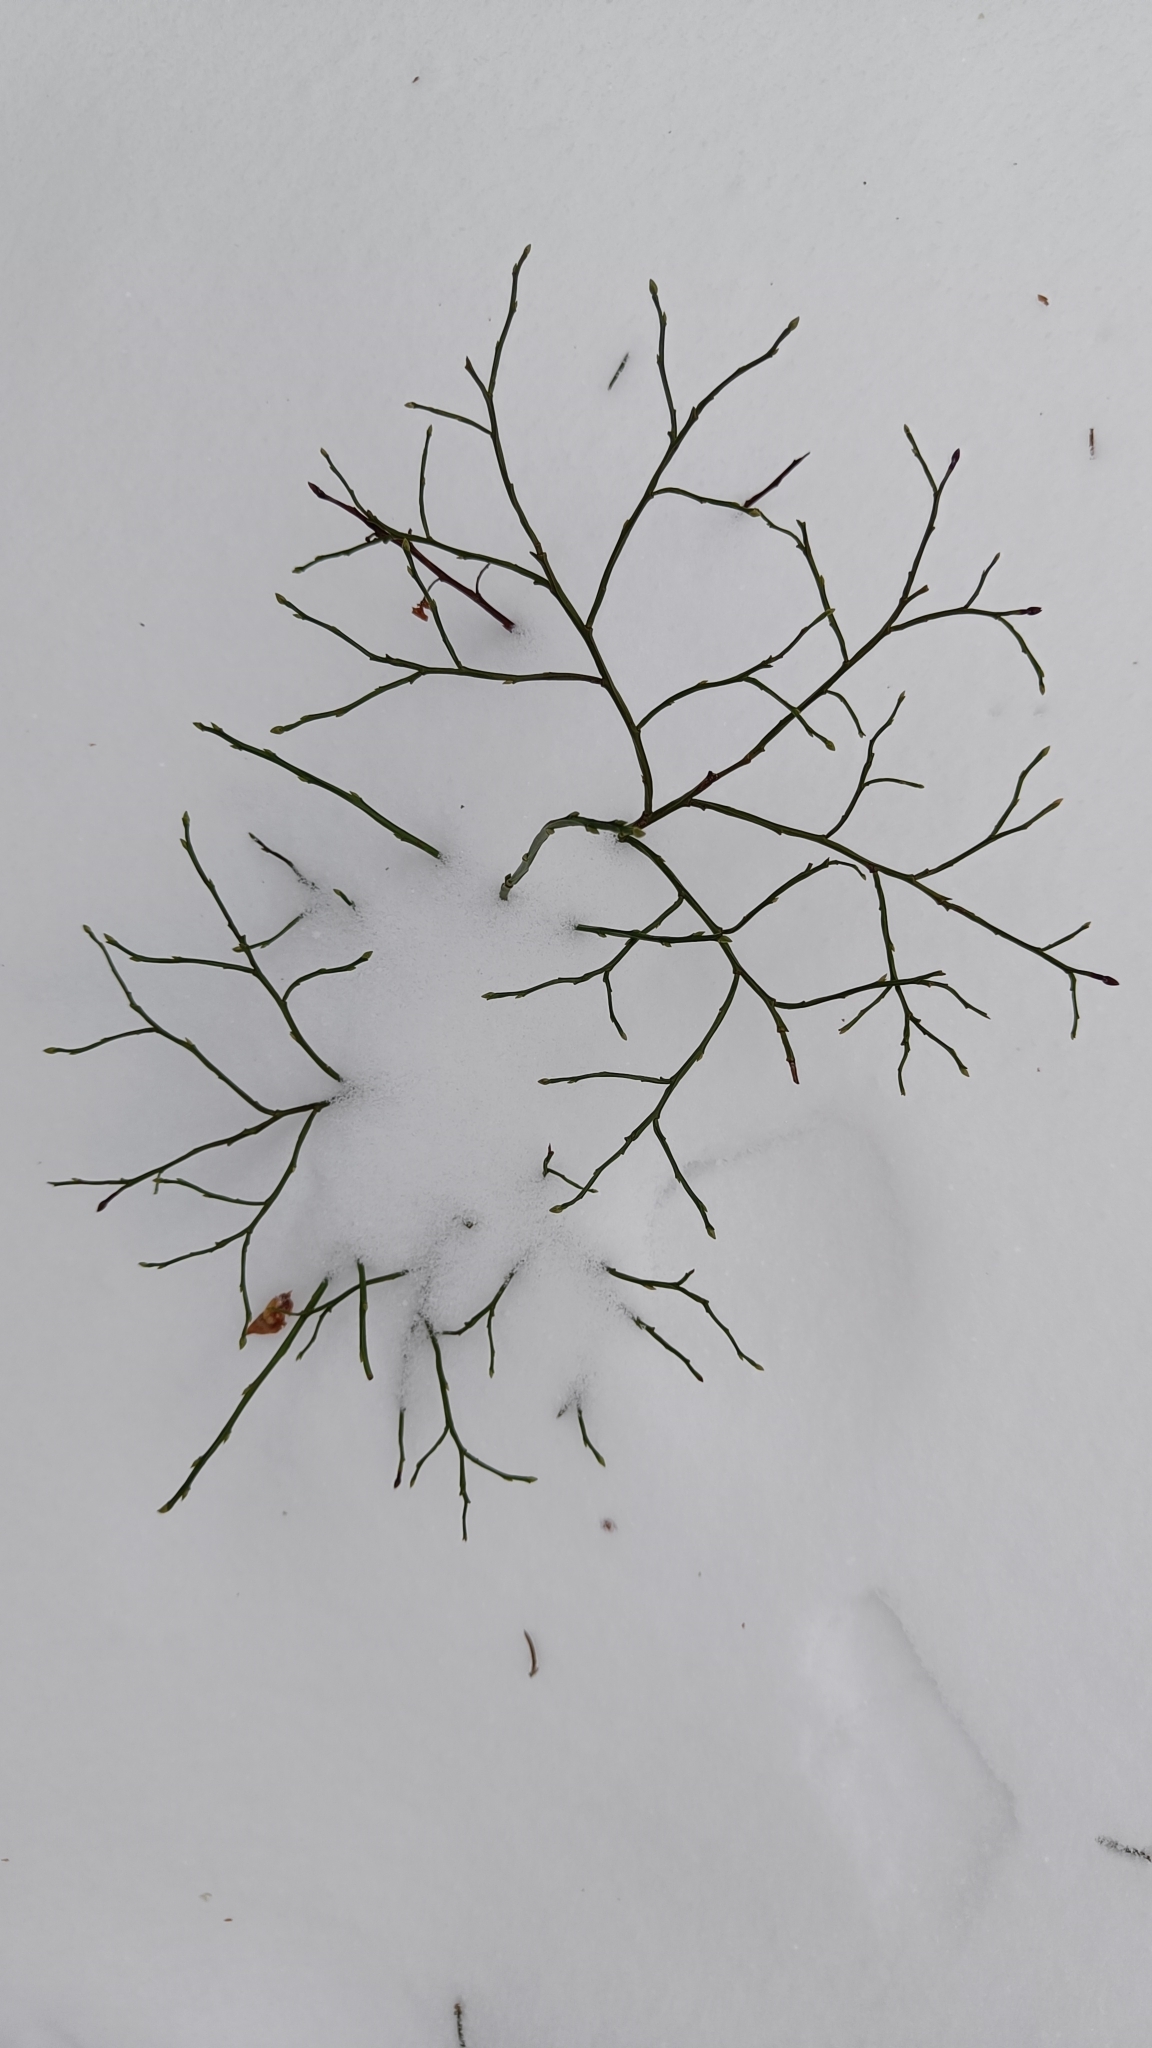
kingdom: Plantae
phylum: Tracheophyta
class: Magnoliopsida
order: Ericales
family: Ericaceae
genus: Vaccinium
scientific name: Vaccinium myrtillus
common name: Bilberry
